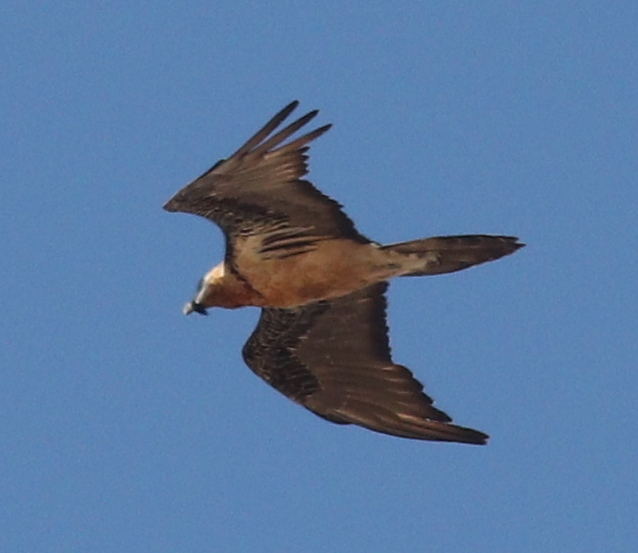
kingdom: Animalia
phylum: Chordata
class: Aves
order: Accipitriformes
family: Accipitridae
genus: Gypaetus
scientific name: Gypaetus barbatus
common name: Bearded vulture
